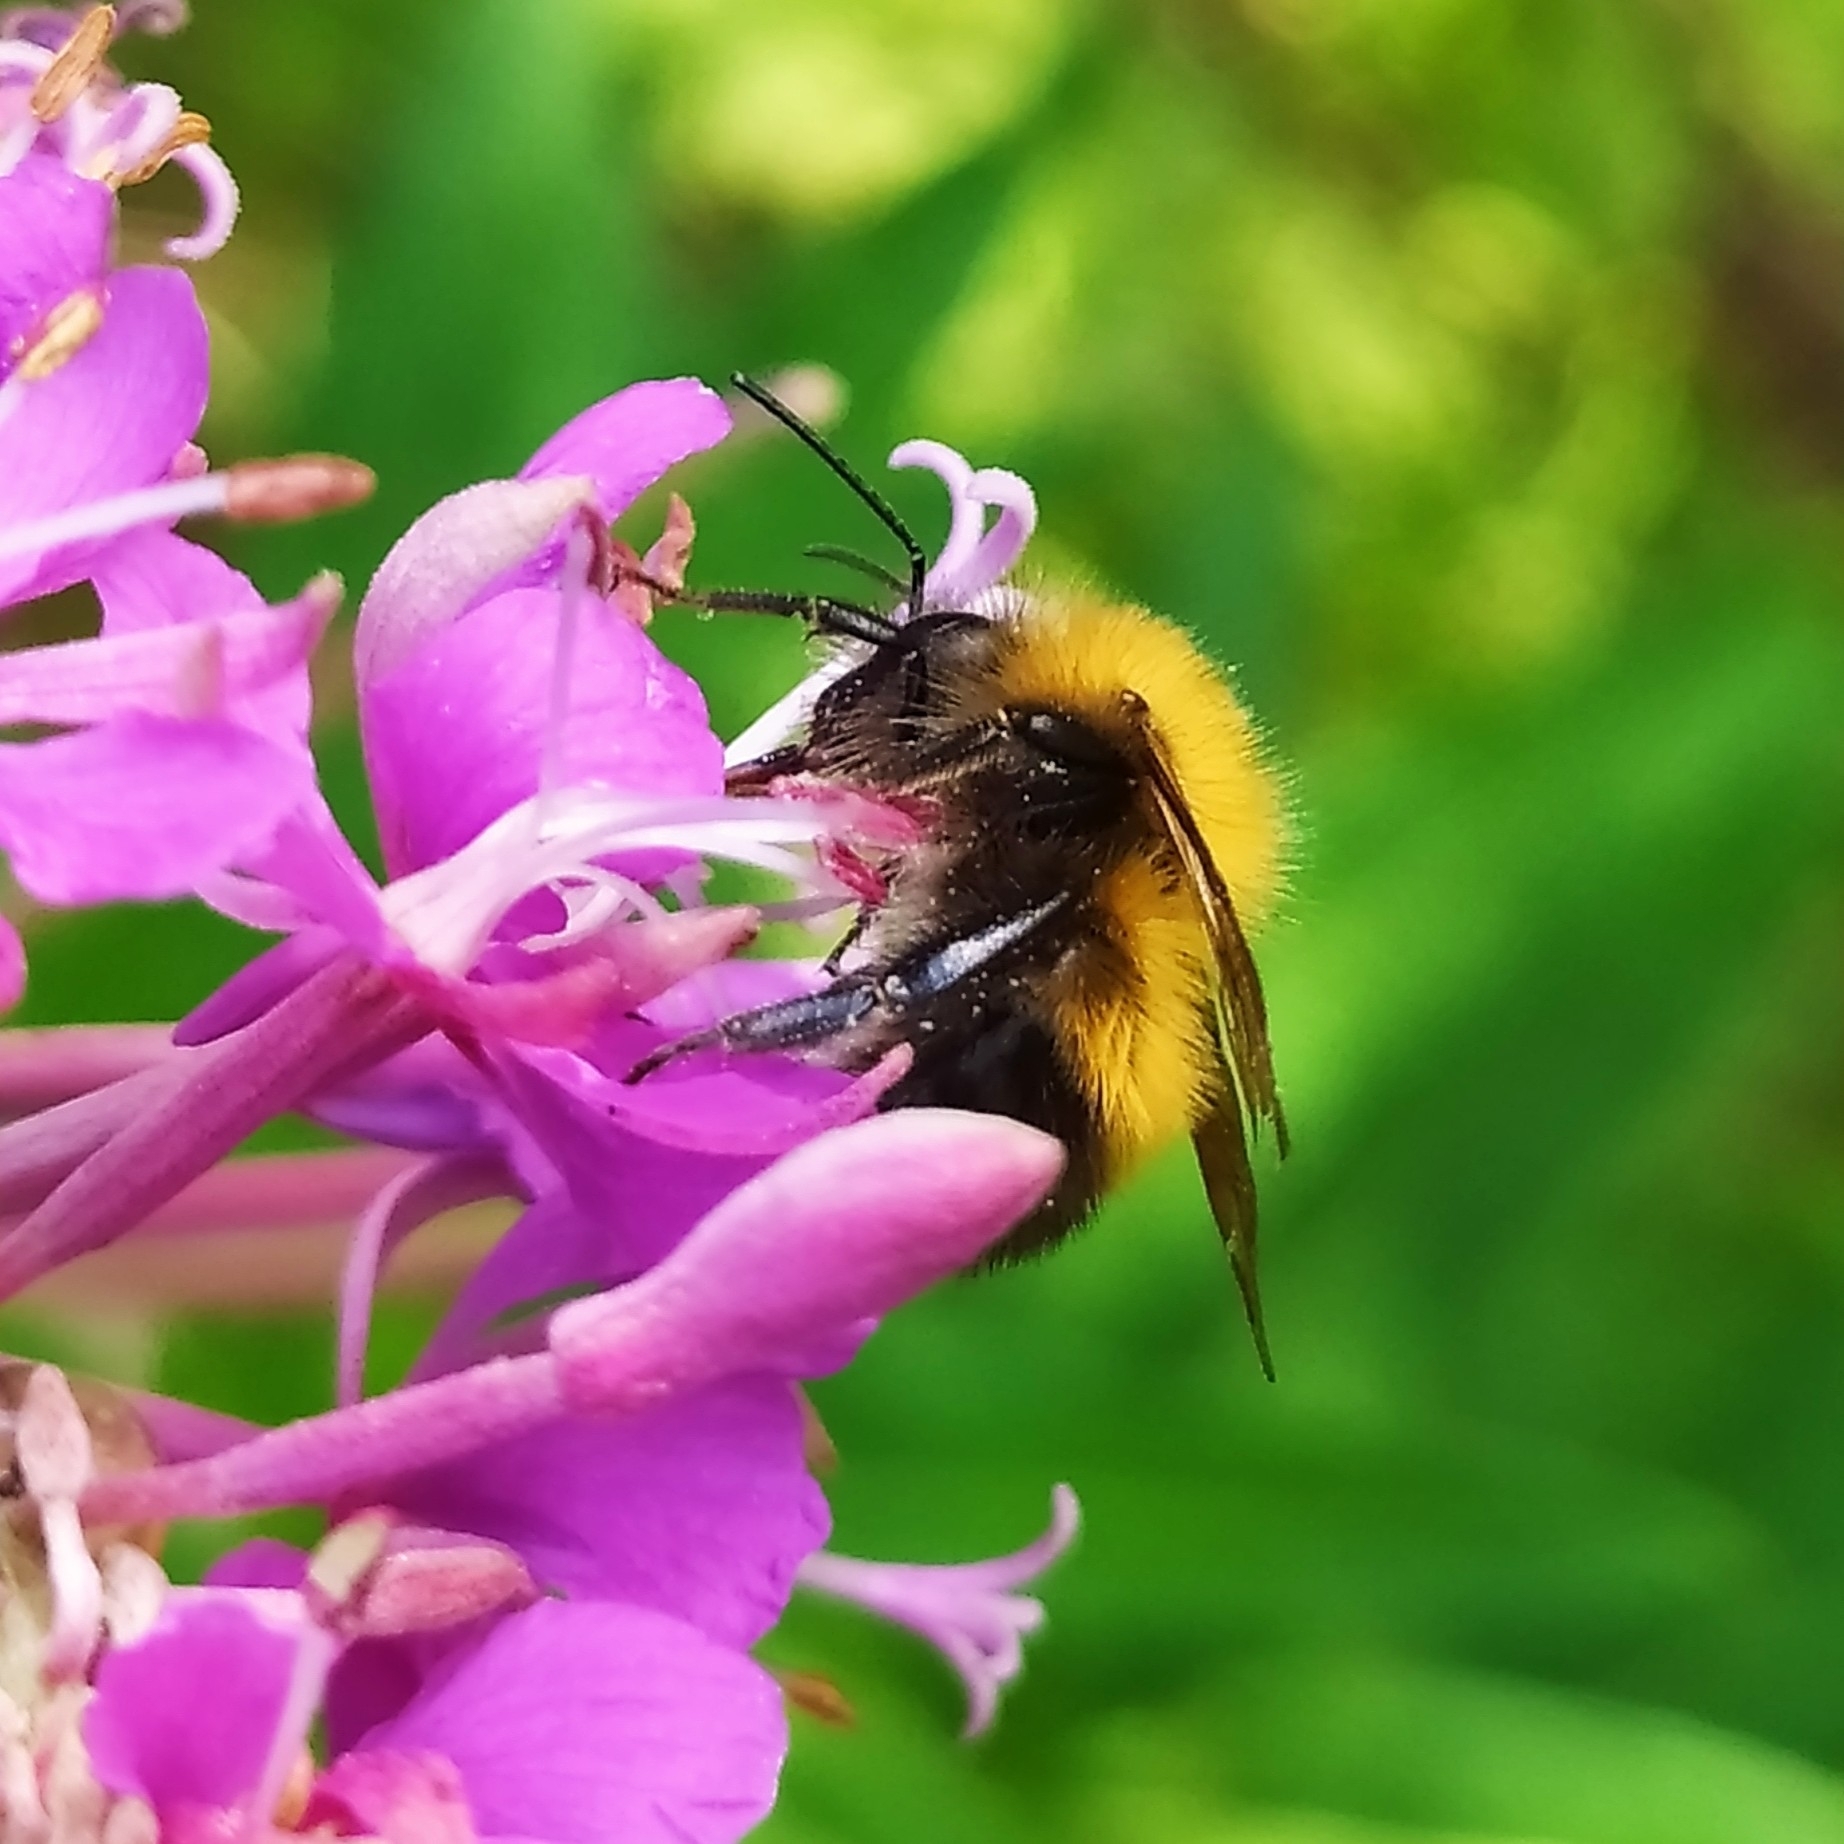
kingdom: Animalia
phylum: Arthropoda
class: Insecta
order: Hymenoptera
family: Apidae
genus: Bombus
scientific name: Bombus hypnorum
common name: New garden bumblebee
